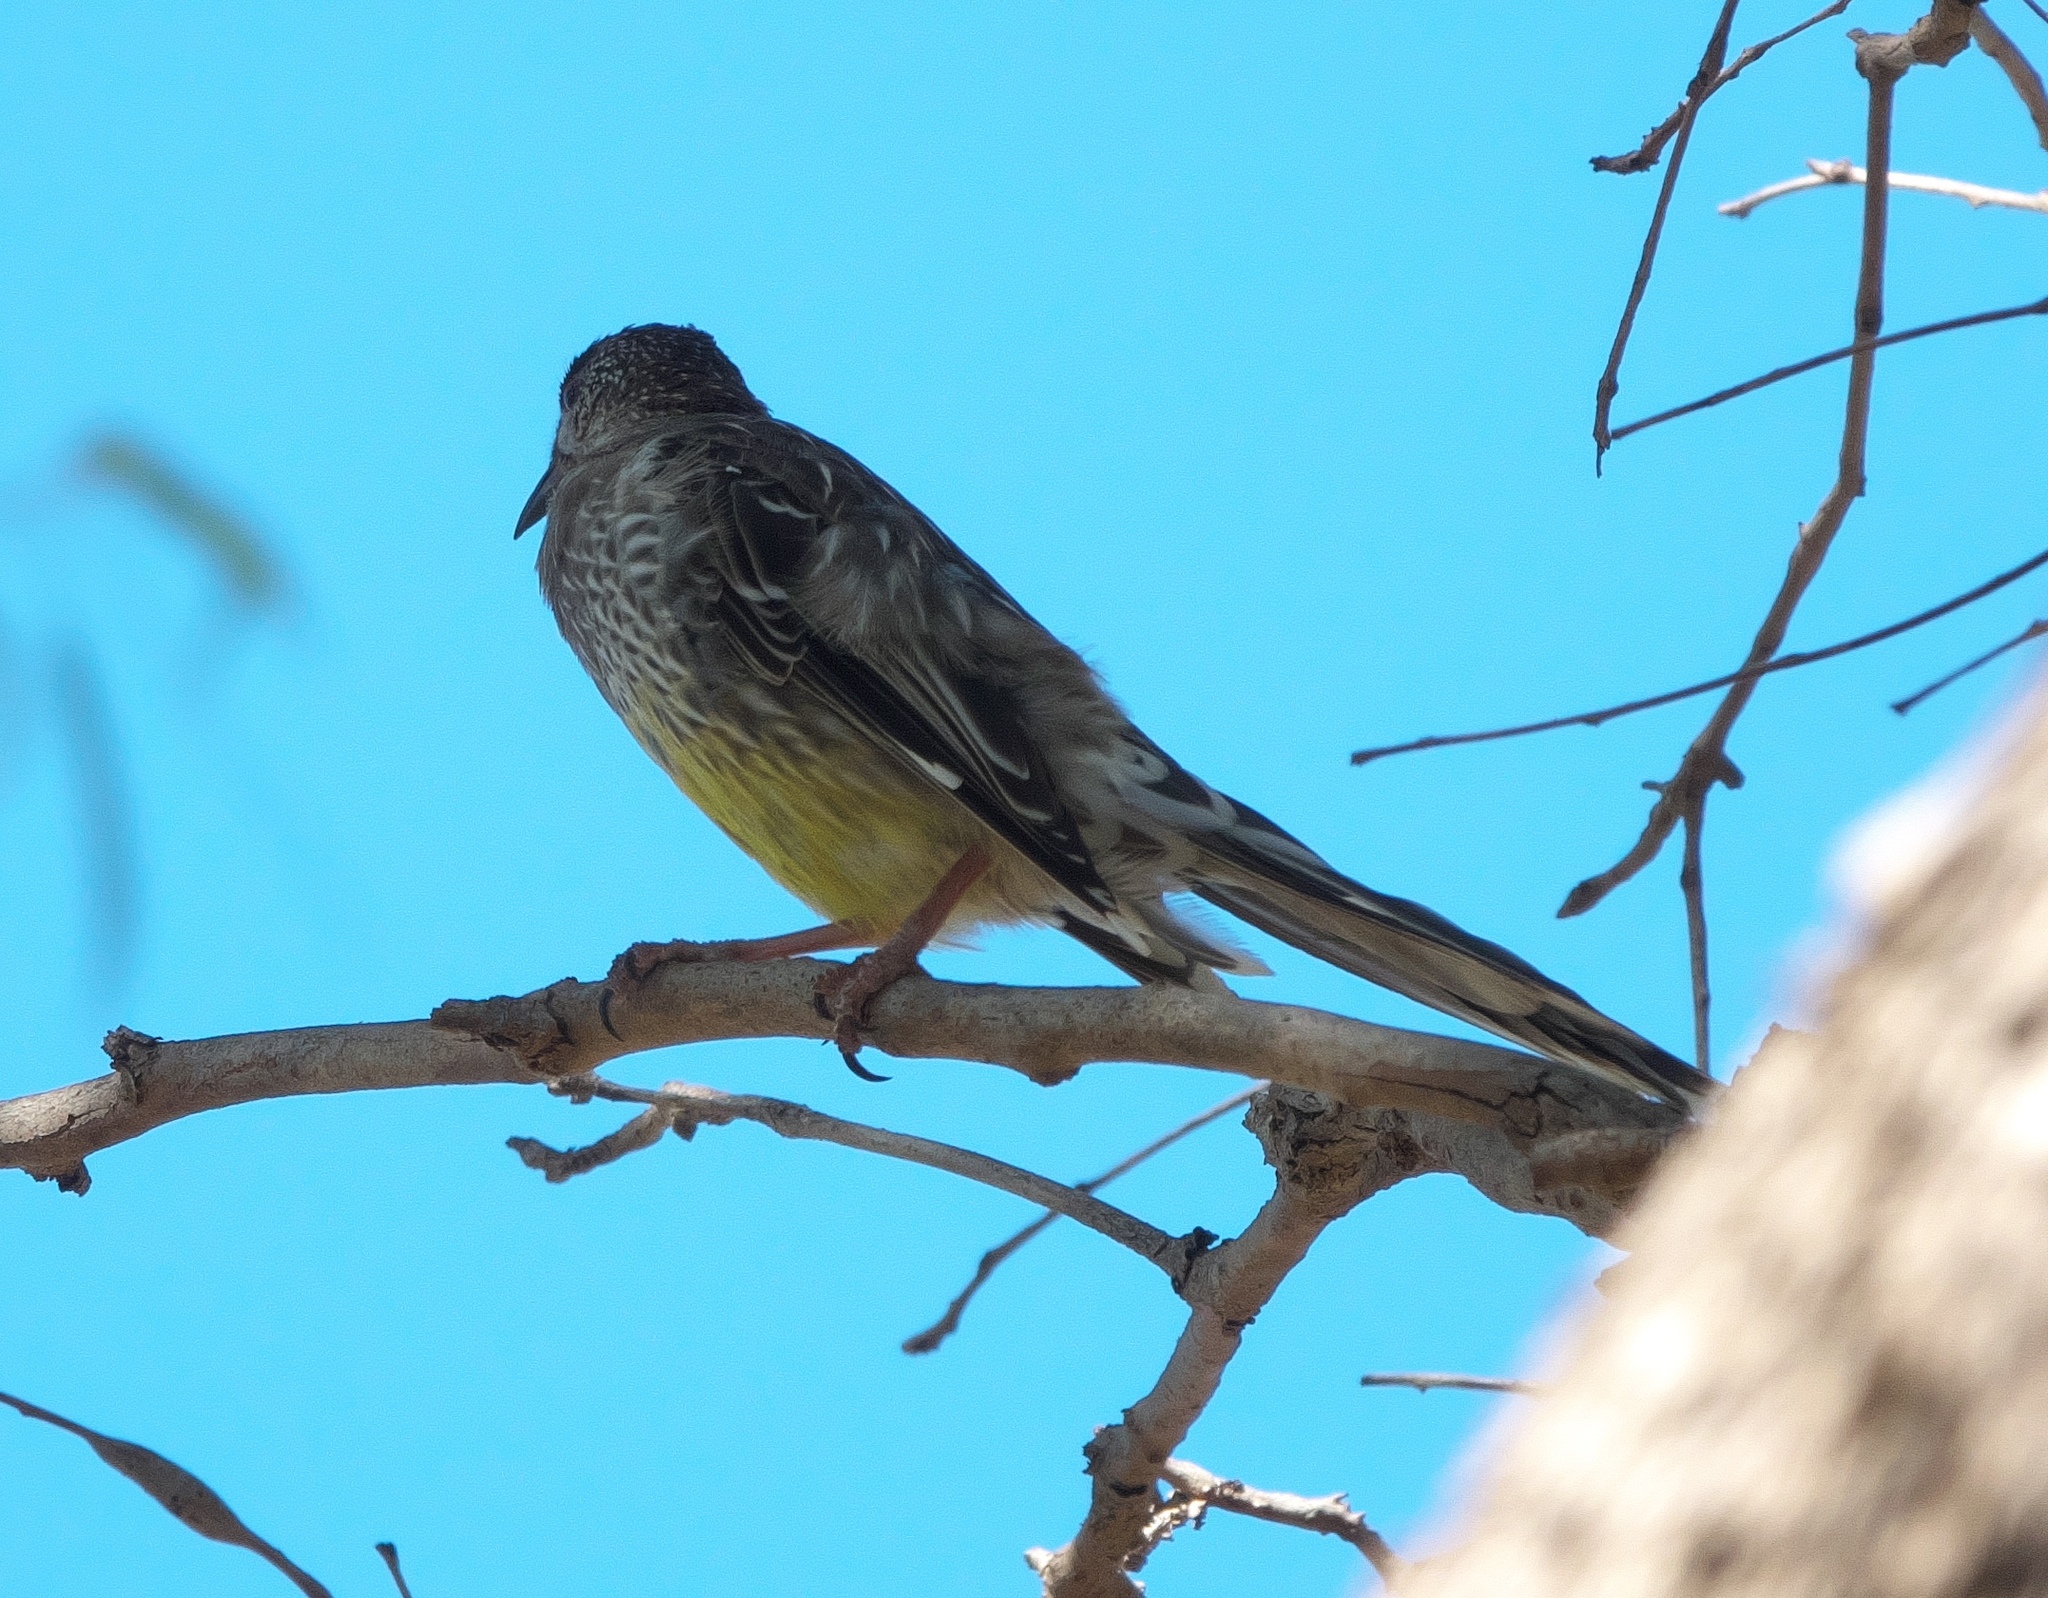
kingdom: Animalia
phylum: Chordata
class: Aves
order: Passeriformes
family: Meliphagidae
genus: Anthochaera
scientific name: Anthochaera carunculata
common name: Red wattlebird
